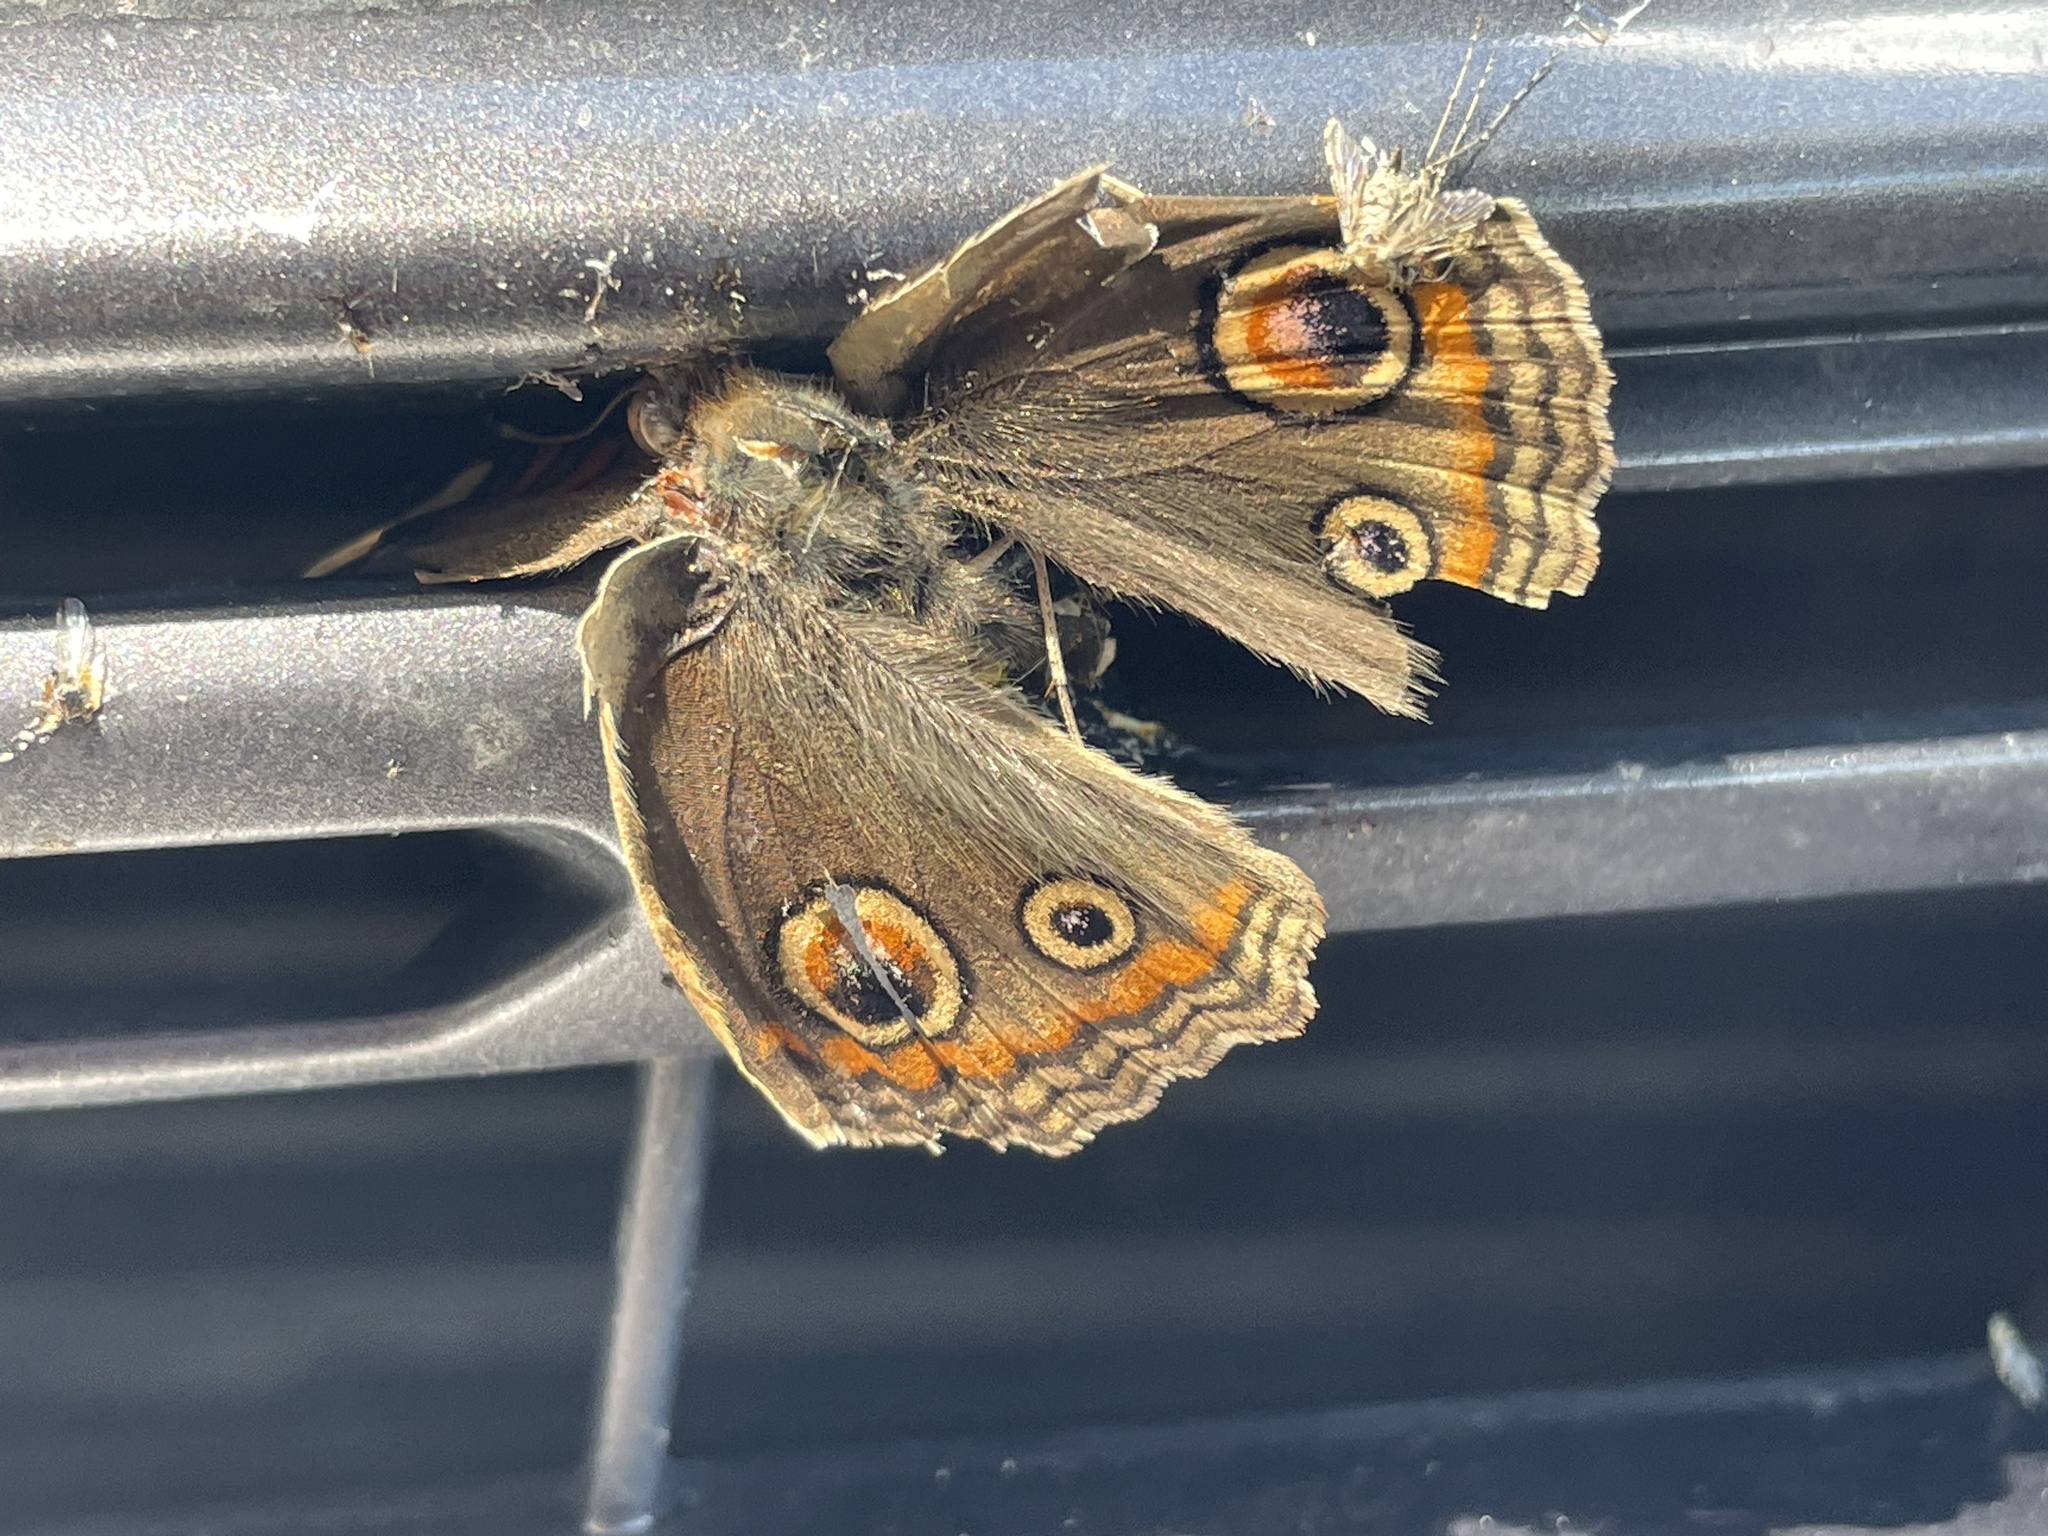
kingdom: Animalia
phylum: Arthropoda
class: Insecta
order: Lepidoptera
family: Nymphalidae
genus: Junonia
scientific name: Junonia grisea
